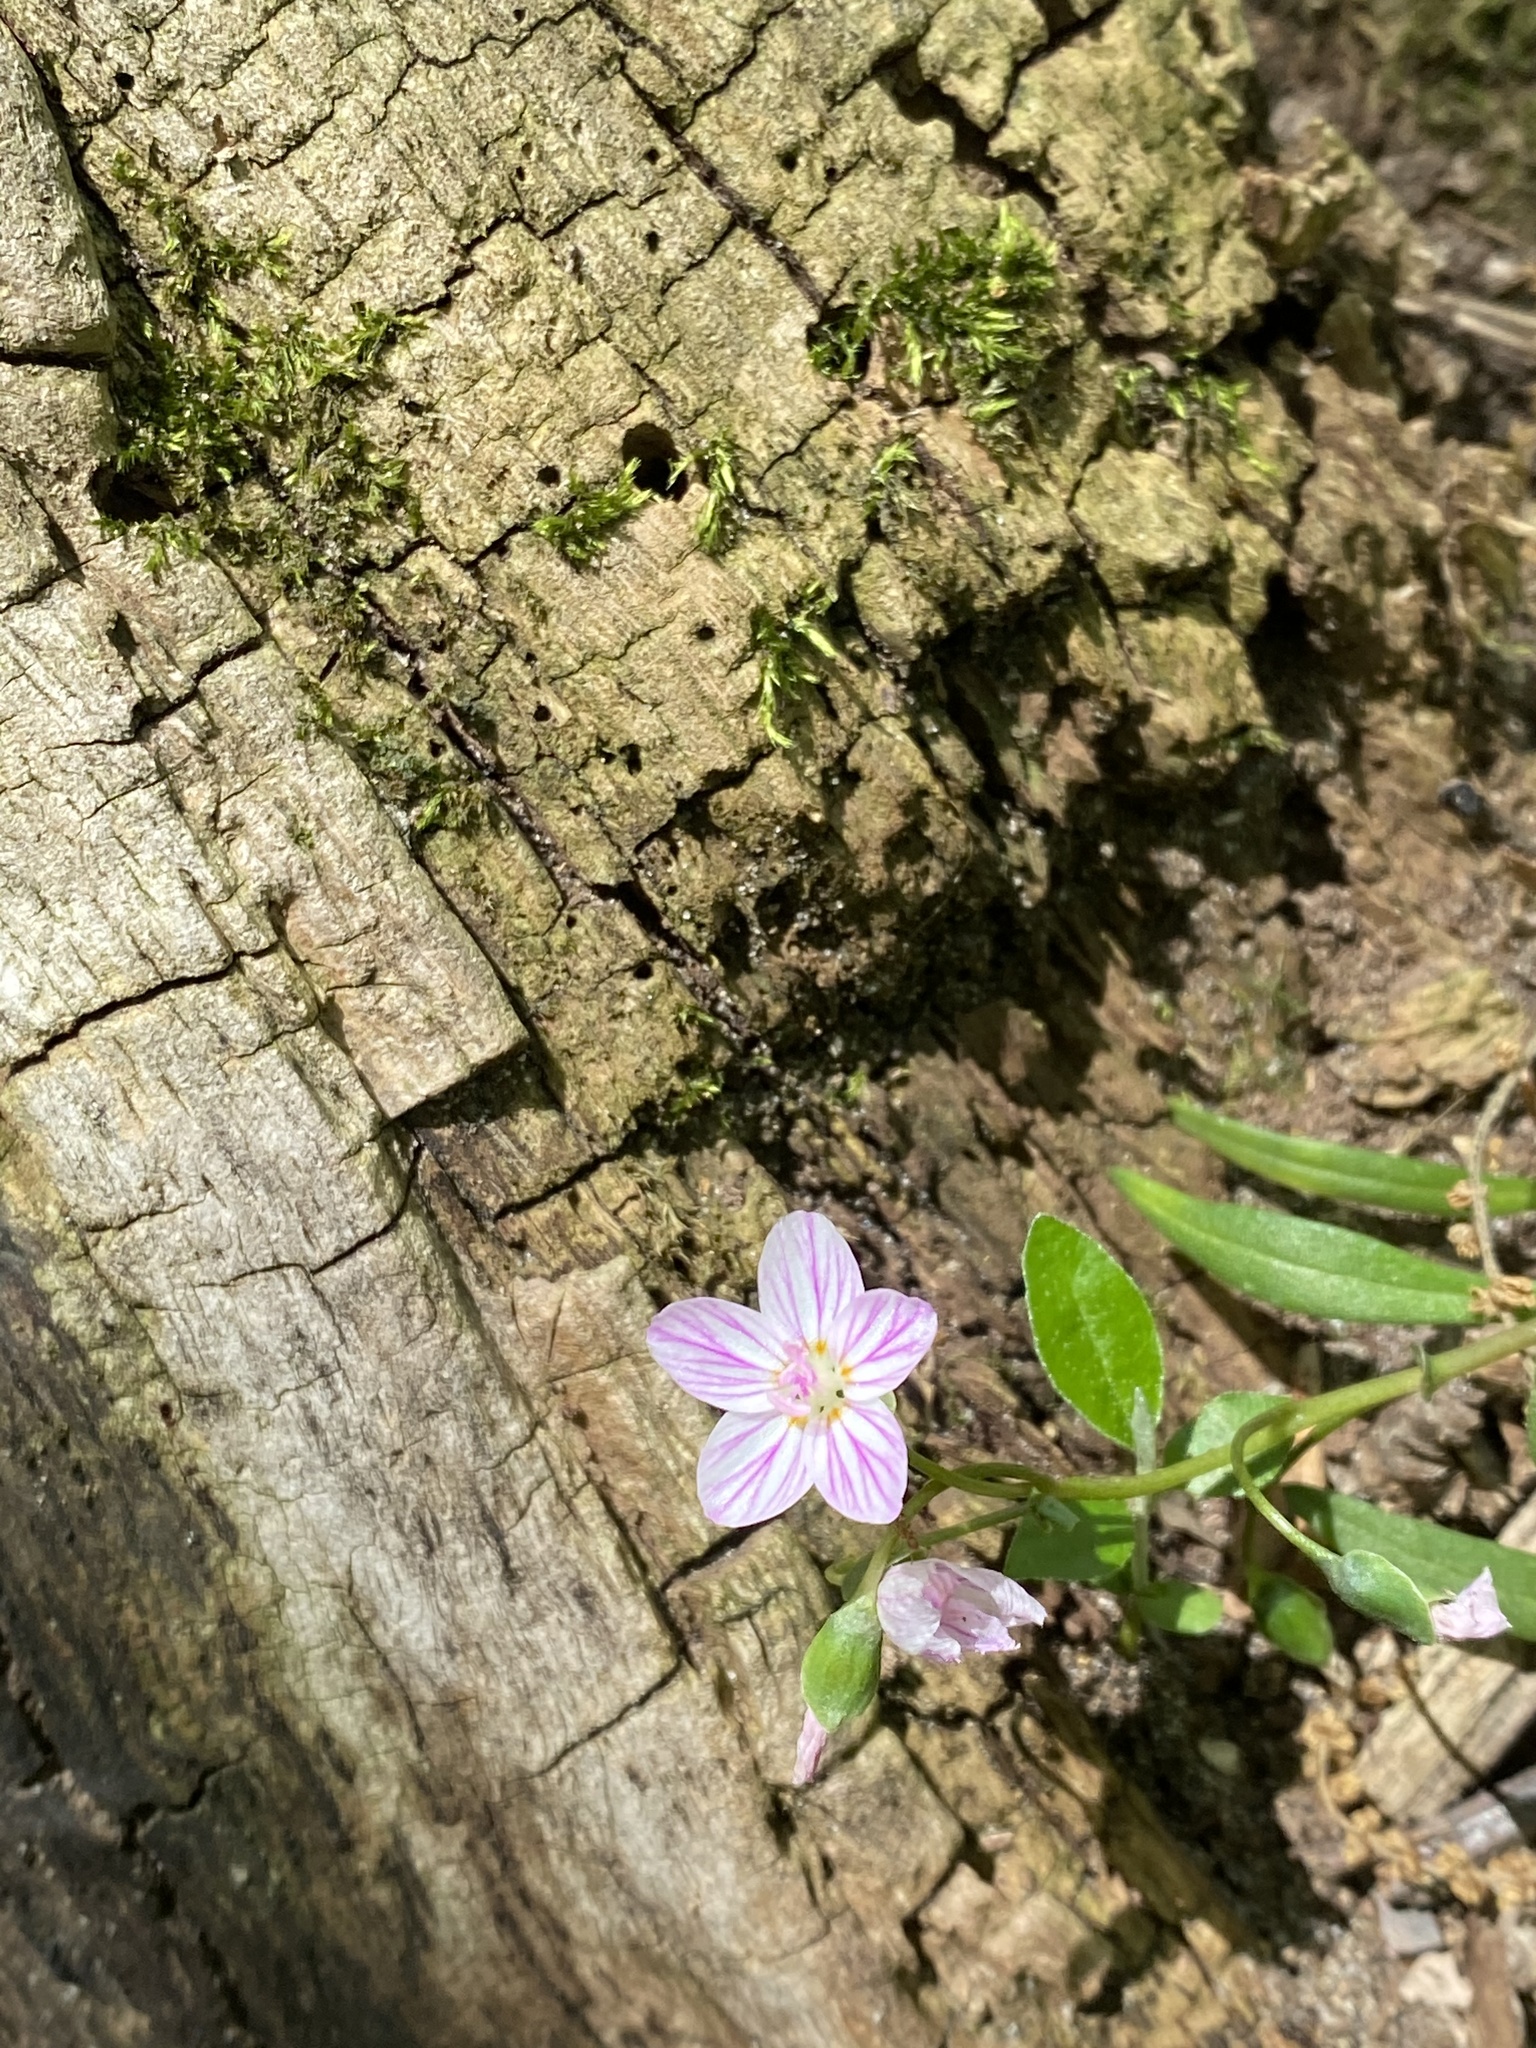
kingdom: Plantae
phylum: Tracheophyta
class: Magnoliopsida
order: Caryophyllales
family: Montiaceae
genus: Claytonia
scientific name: Claytonia virginica
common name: Virginia springbeauty
